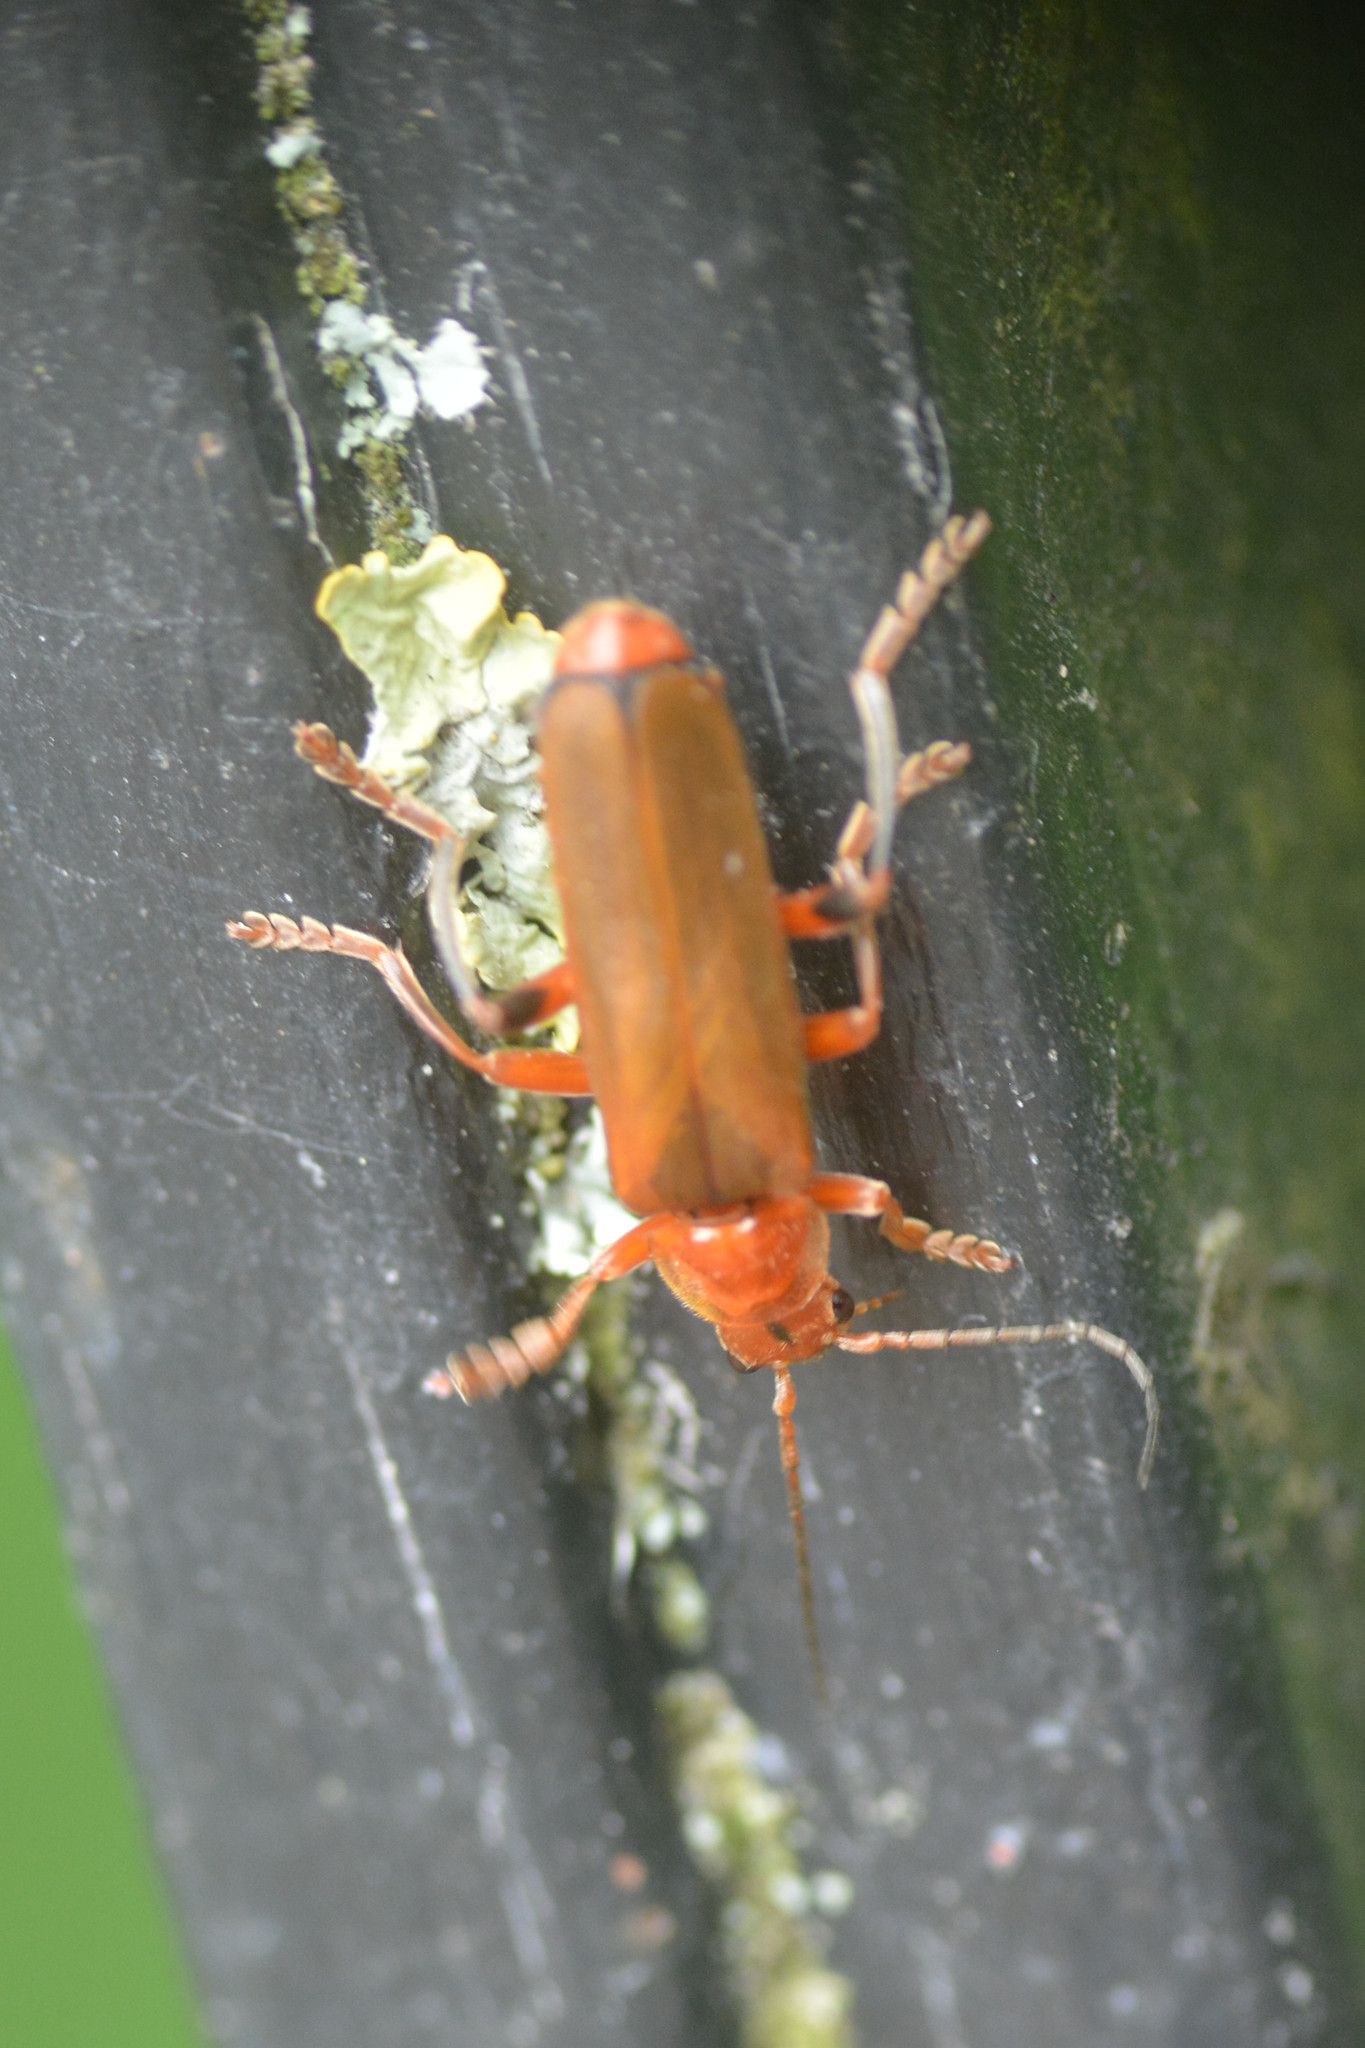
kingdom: Animalia
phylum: Arthropoda
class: Insecta
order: Coleoptera
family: Cantharidae
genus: Cantharis
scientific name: Cantharis livida
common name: Livid soldier beetle
